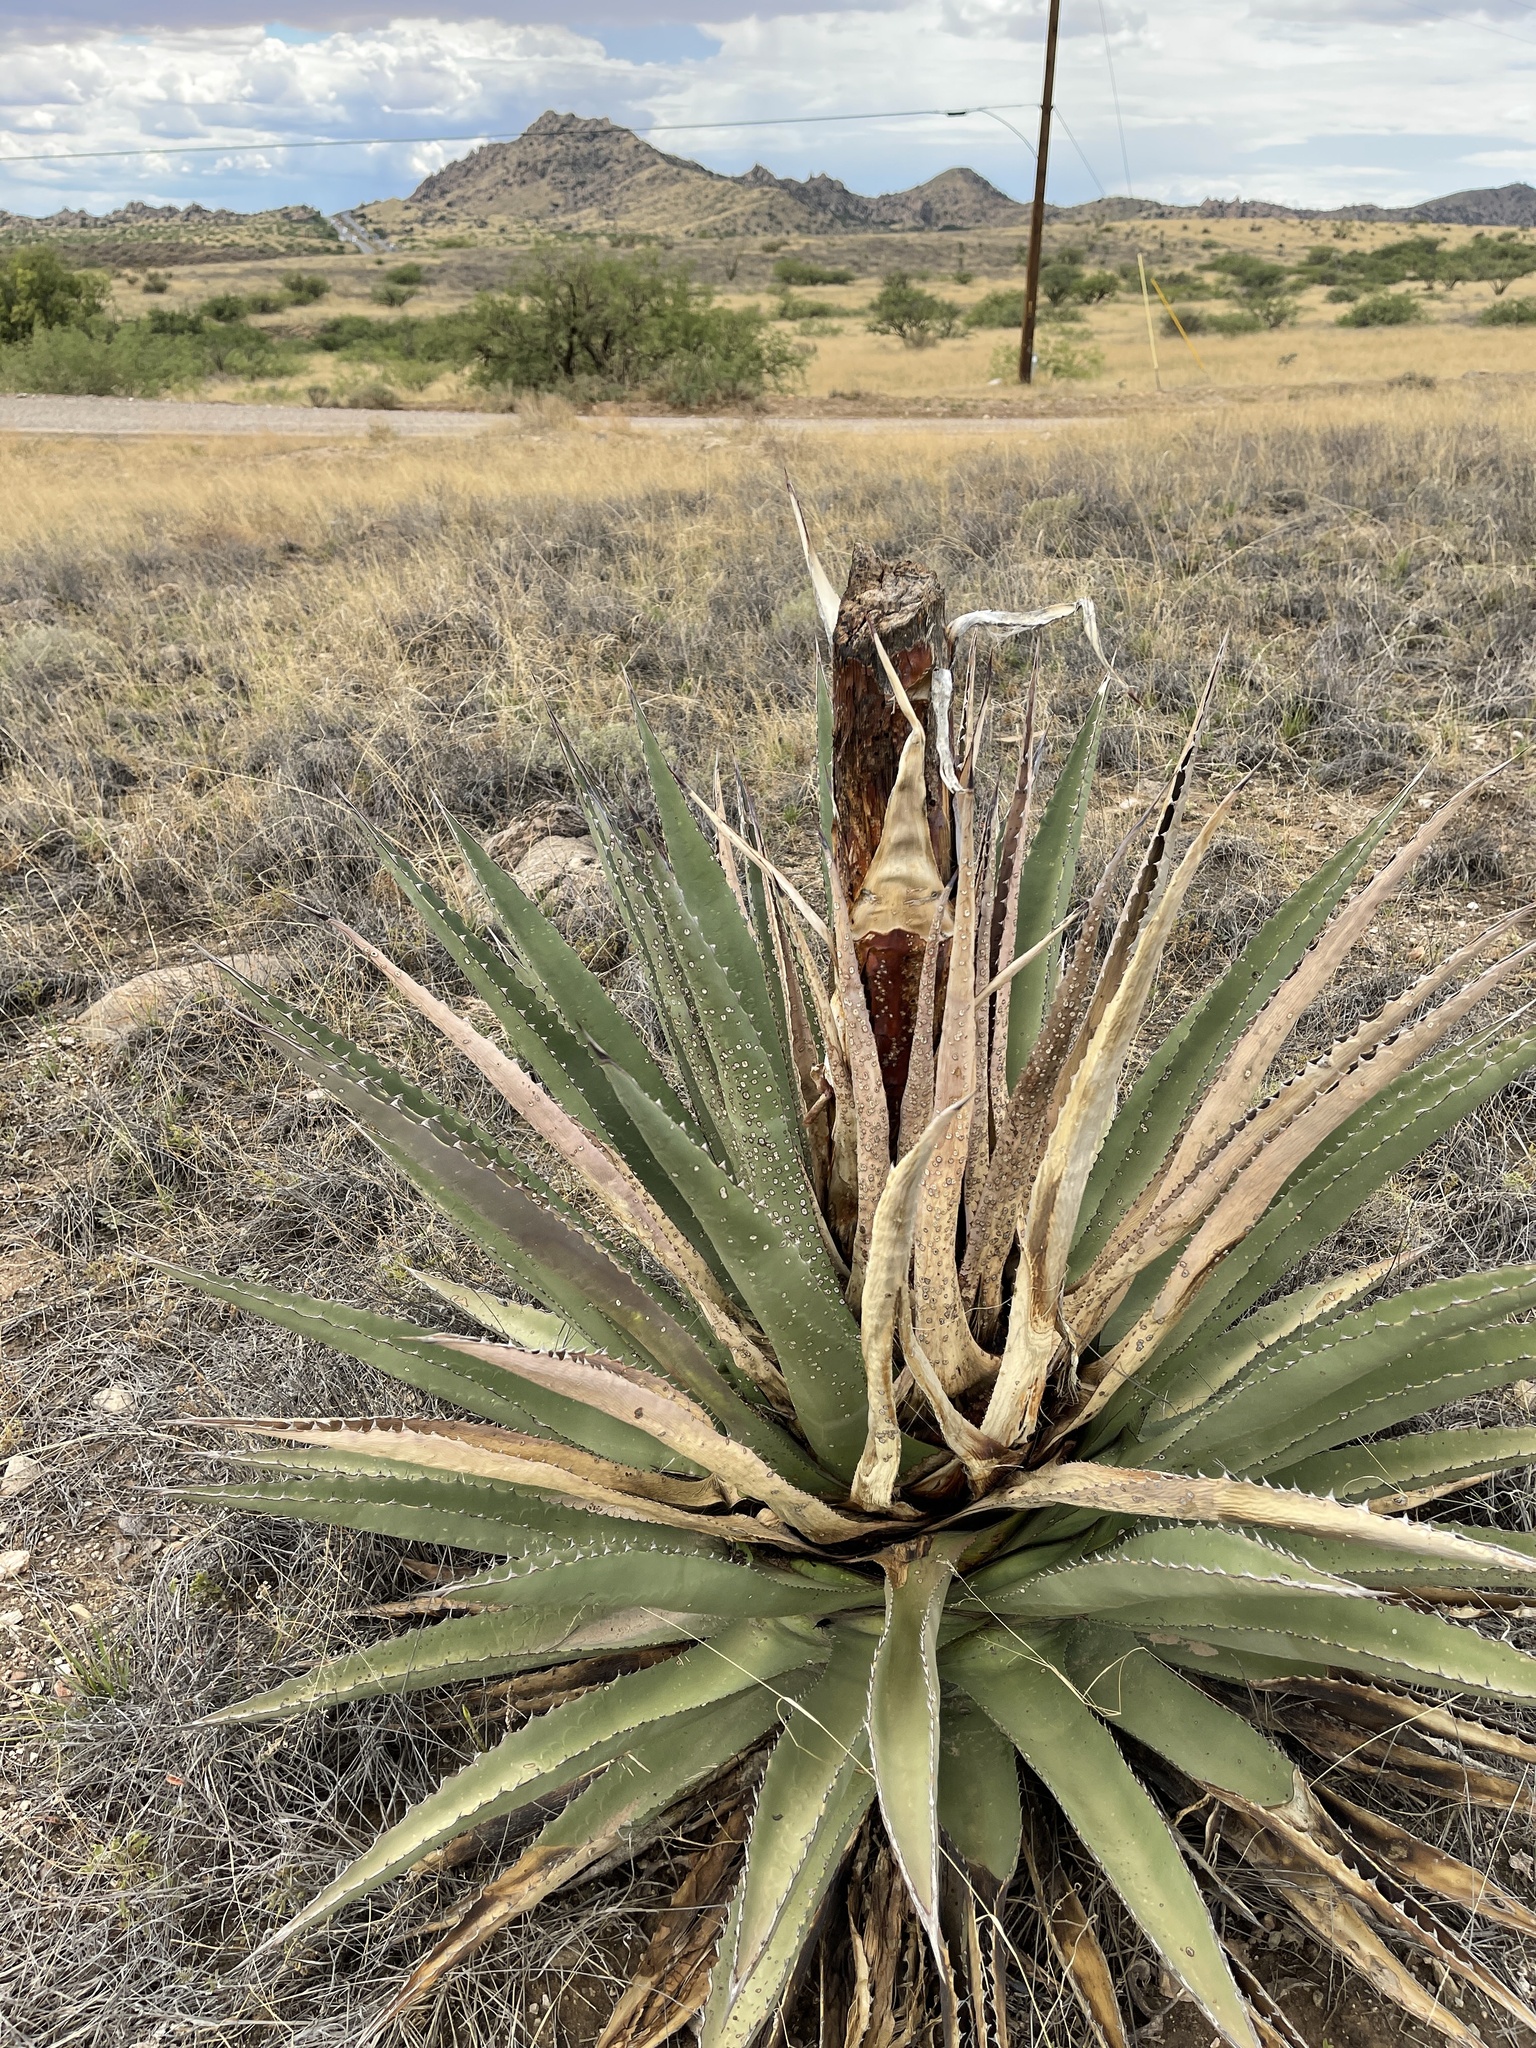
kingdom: Plantae
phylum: Tracheophyta
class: Liliopsida
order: Asparagales
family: Asparagaceae
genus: Agave
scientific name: Agave palmeri
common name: Palmer agave
